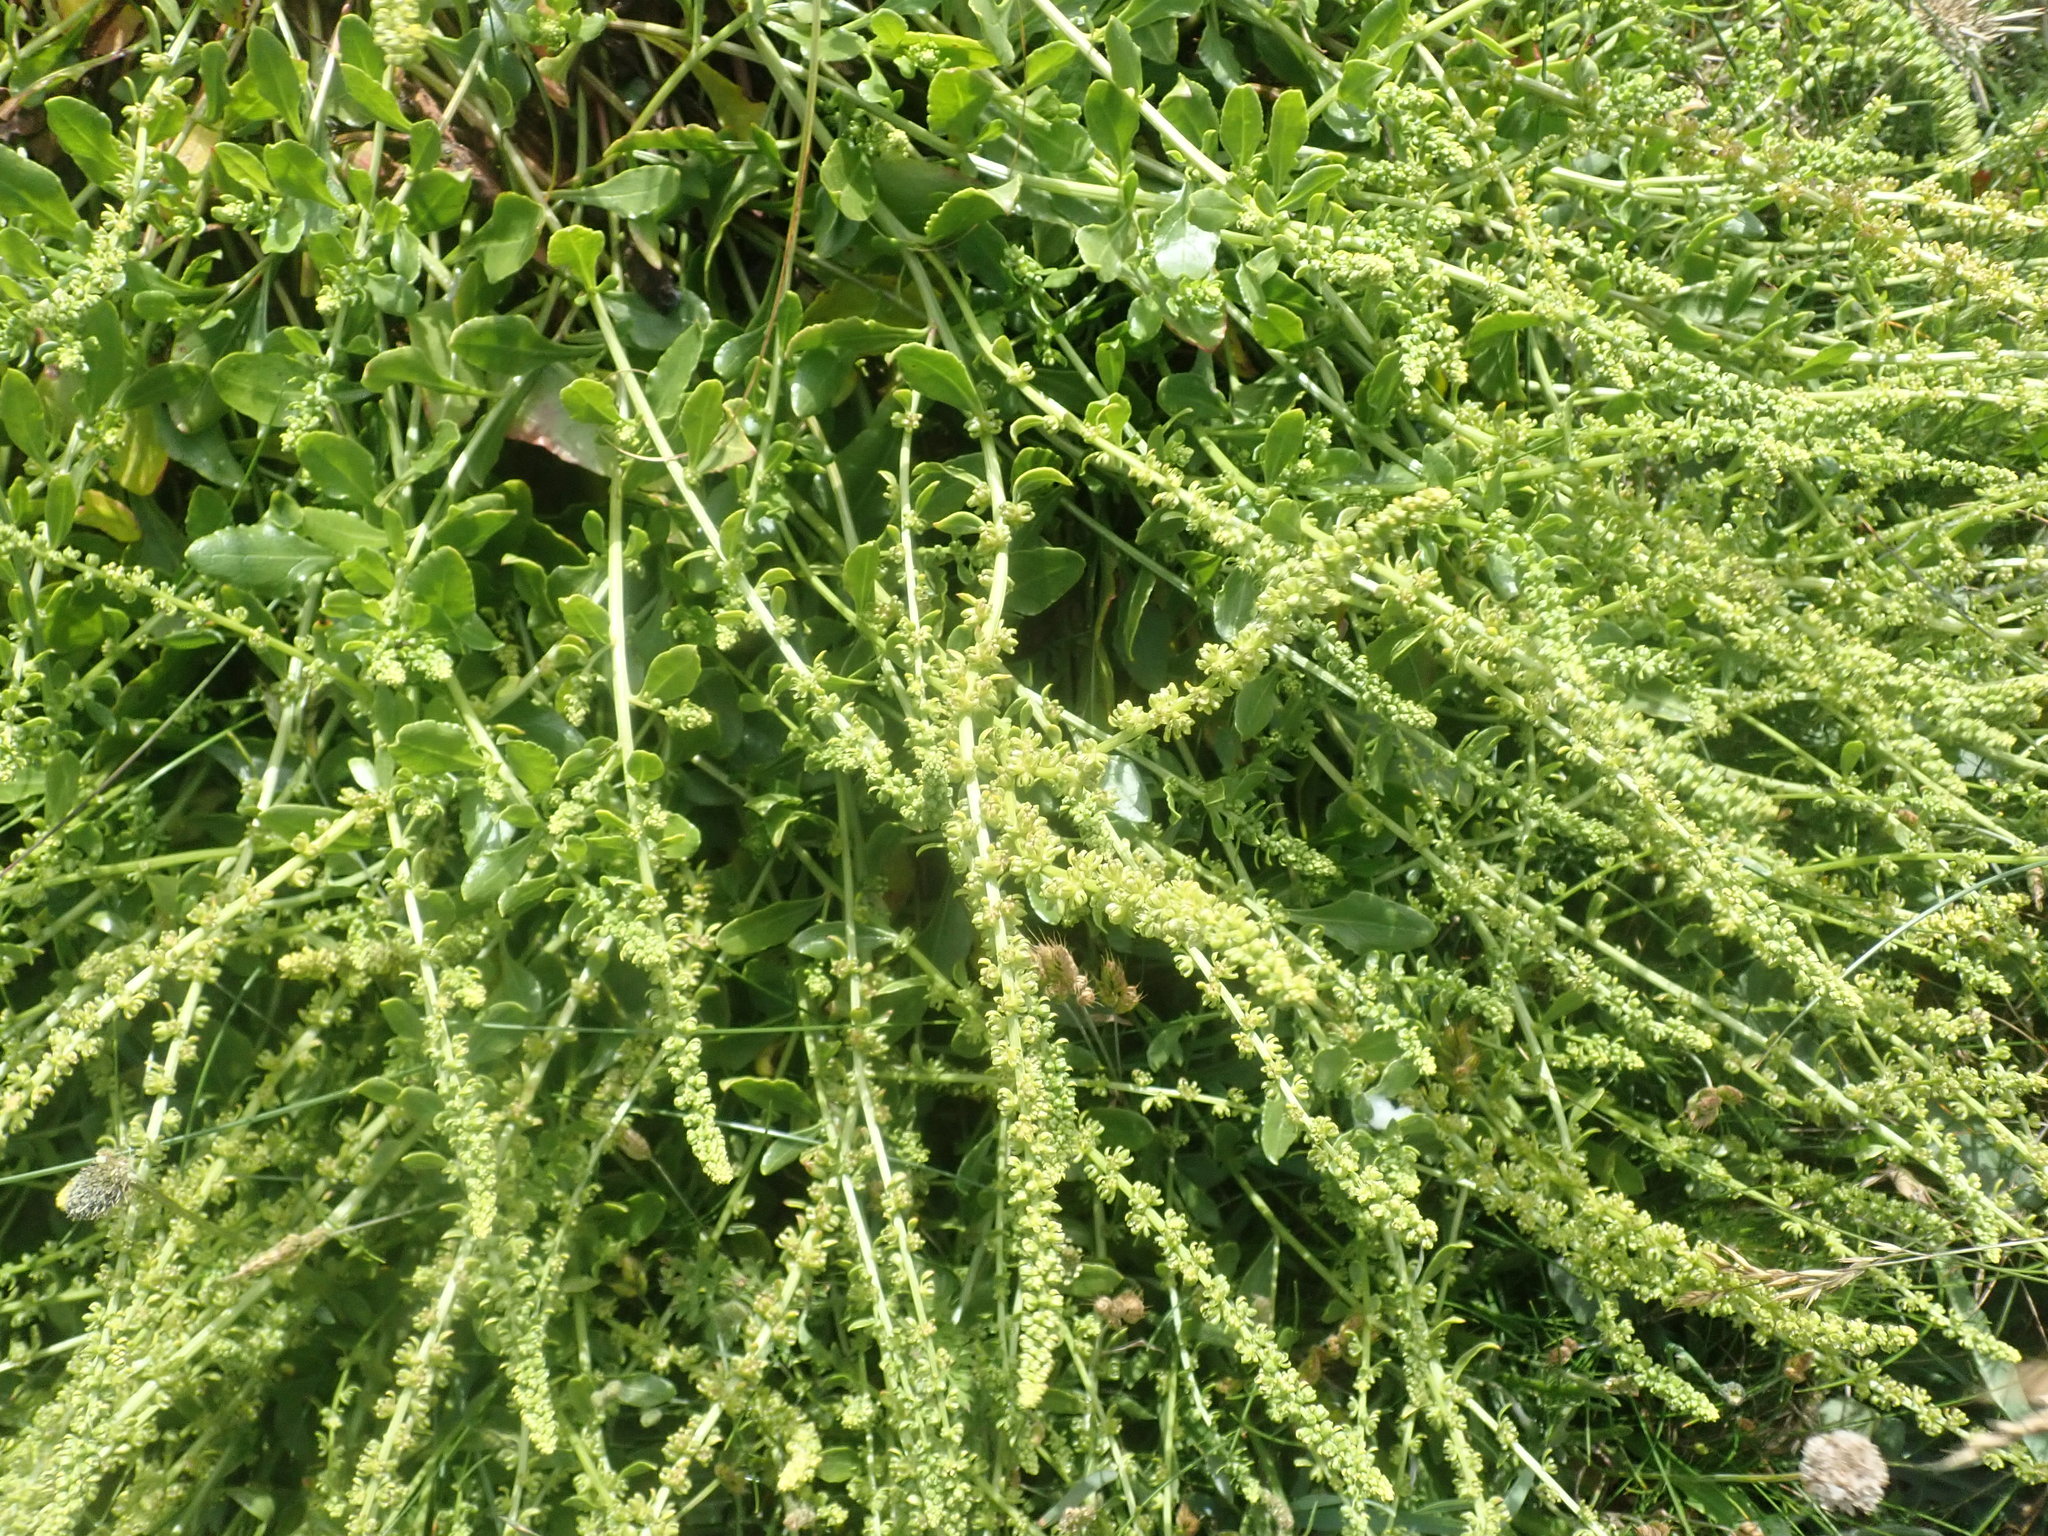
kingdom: Plantae
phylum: Tracheophyta
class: Magnoliopsida
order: Caryophyllales
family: Amaranthaceae
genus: Beta
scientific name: Beta vulgaris
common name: Beet
